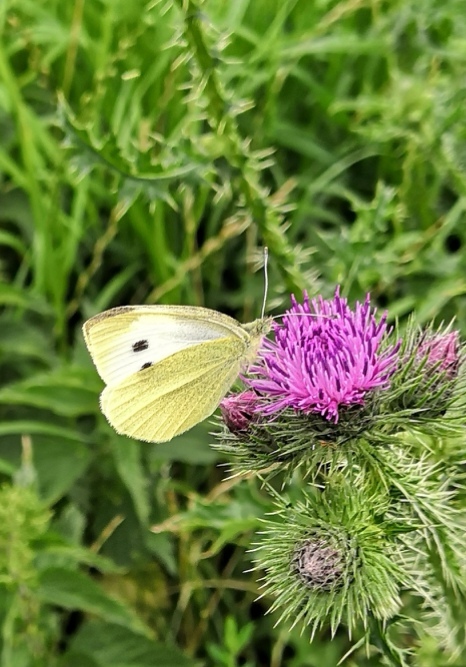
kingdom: Animalia
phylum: Arthropoda
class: Insecta
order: Lepidoptera
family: Pieridae
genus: Pieris
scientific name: Pieris rapae
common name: Small white
